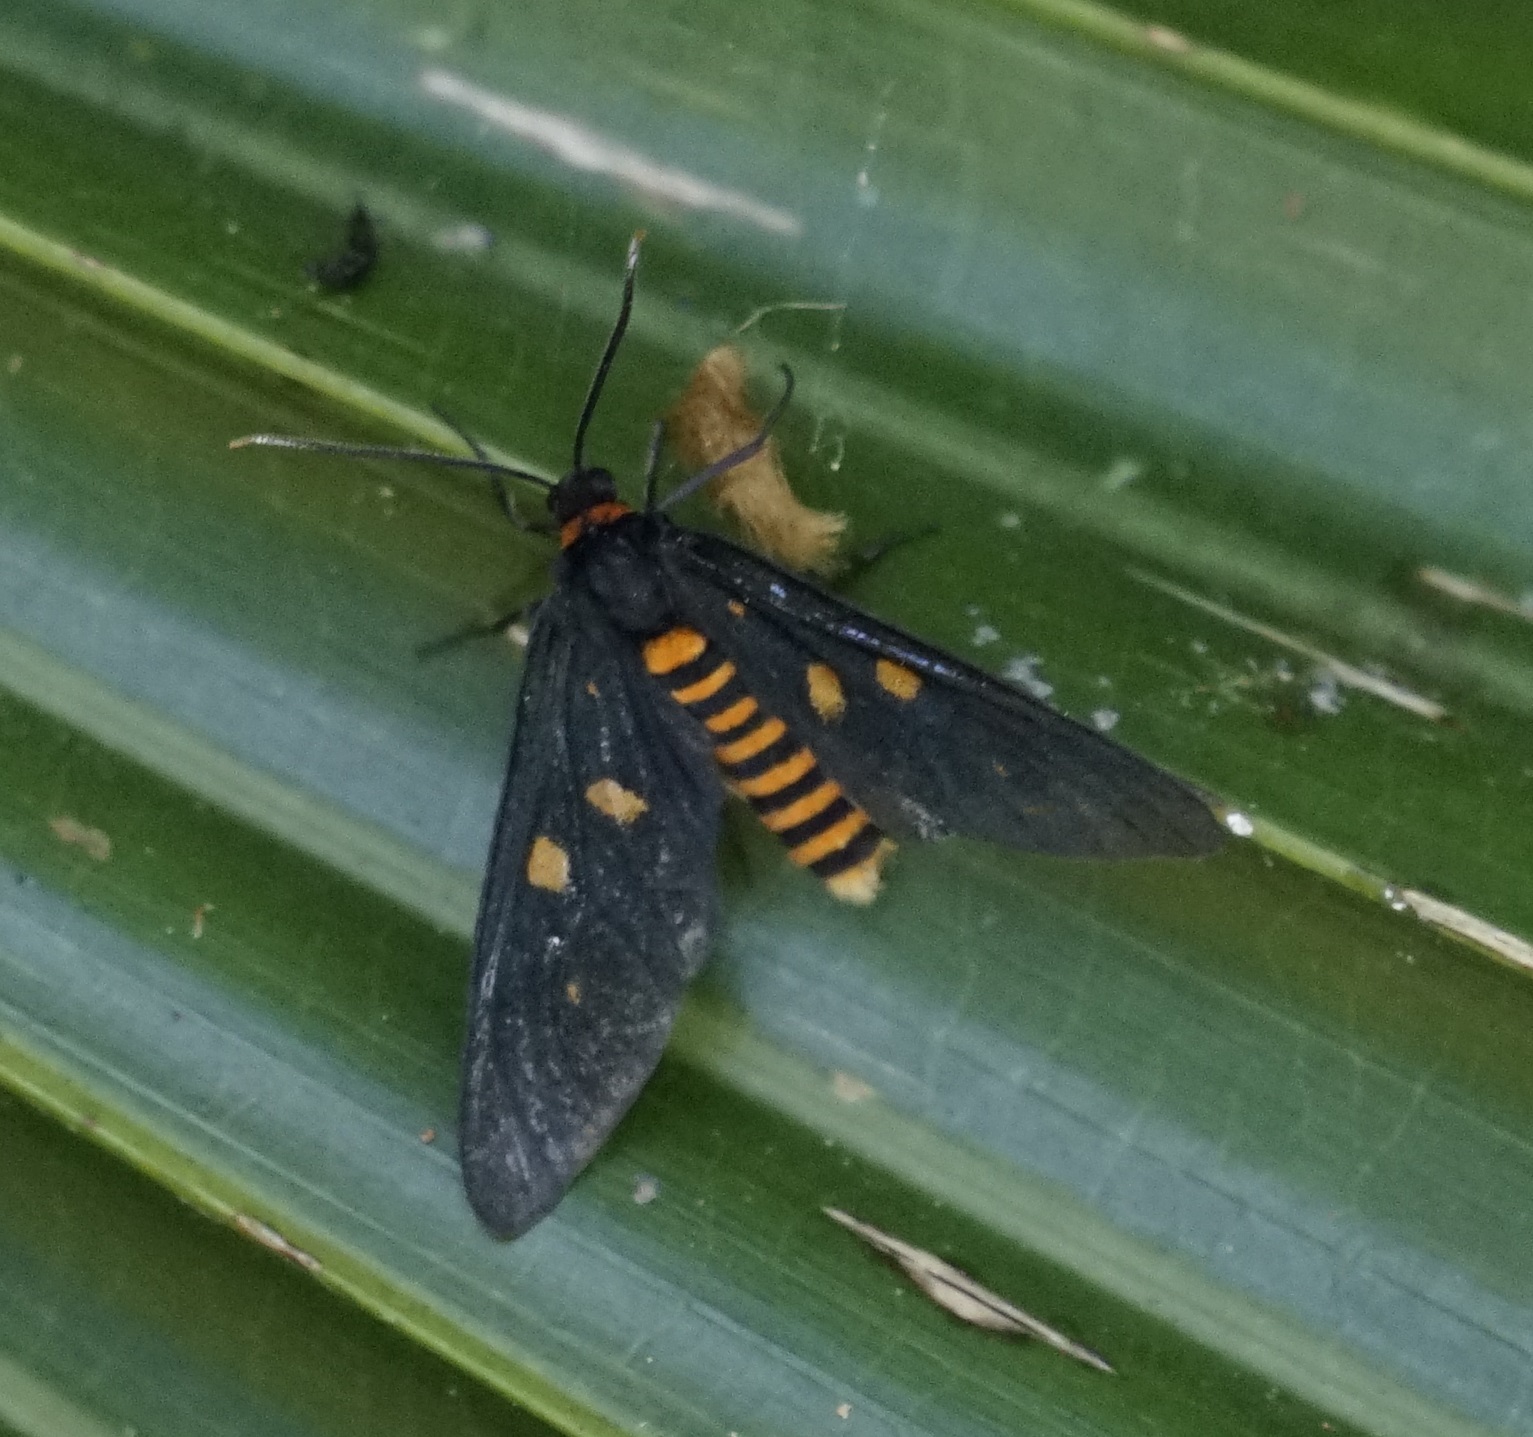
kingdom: Animalia
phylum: Arthropoda
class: Insecta
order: Lepidoptera
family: Erebidae
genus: Amata
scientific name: Amata phepsalotis
